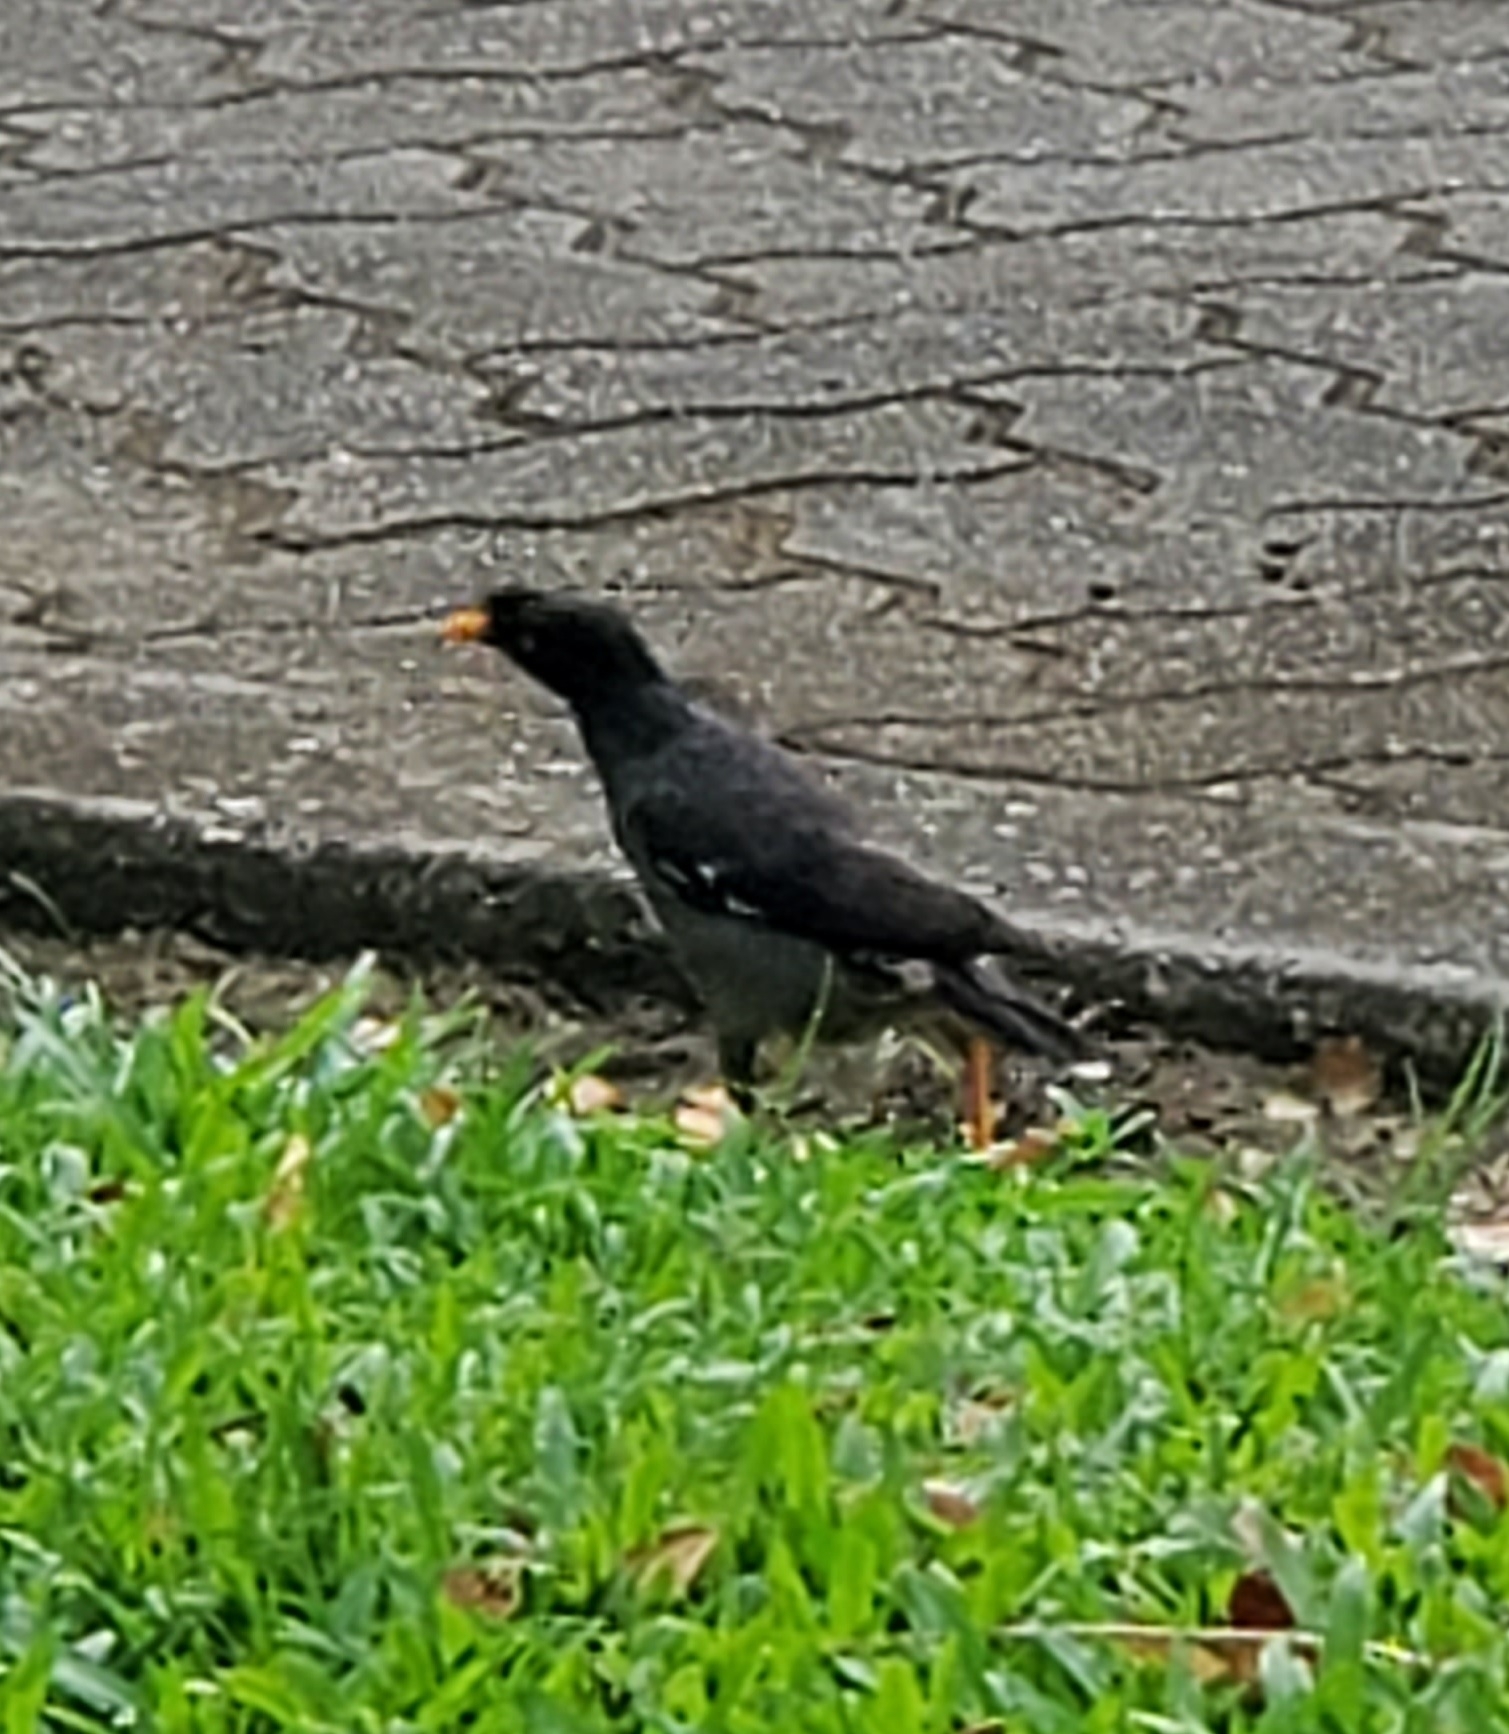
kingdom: Animalia
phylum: Chordata
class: Aves
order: Passeriformes
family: Sturnidae
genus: Acridotheres
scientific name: Acridotheres fuscus
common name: Jungle myna
